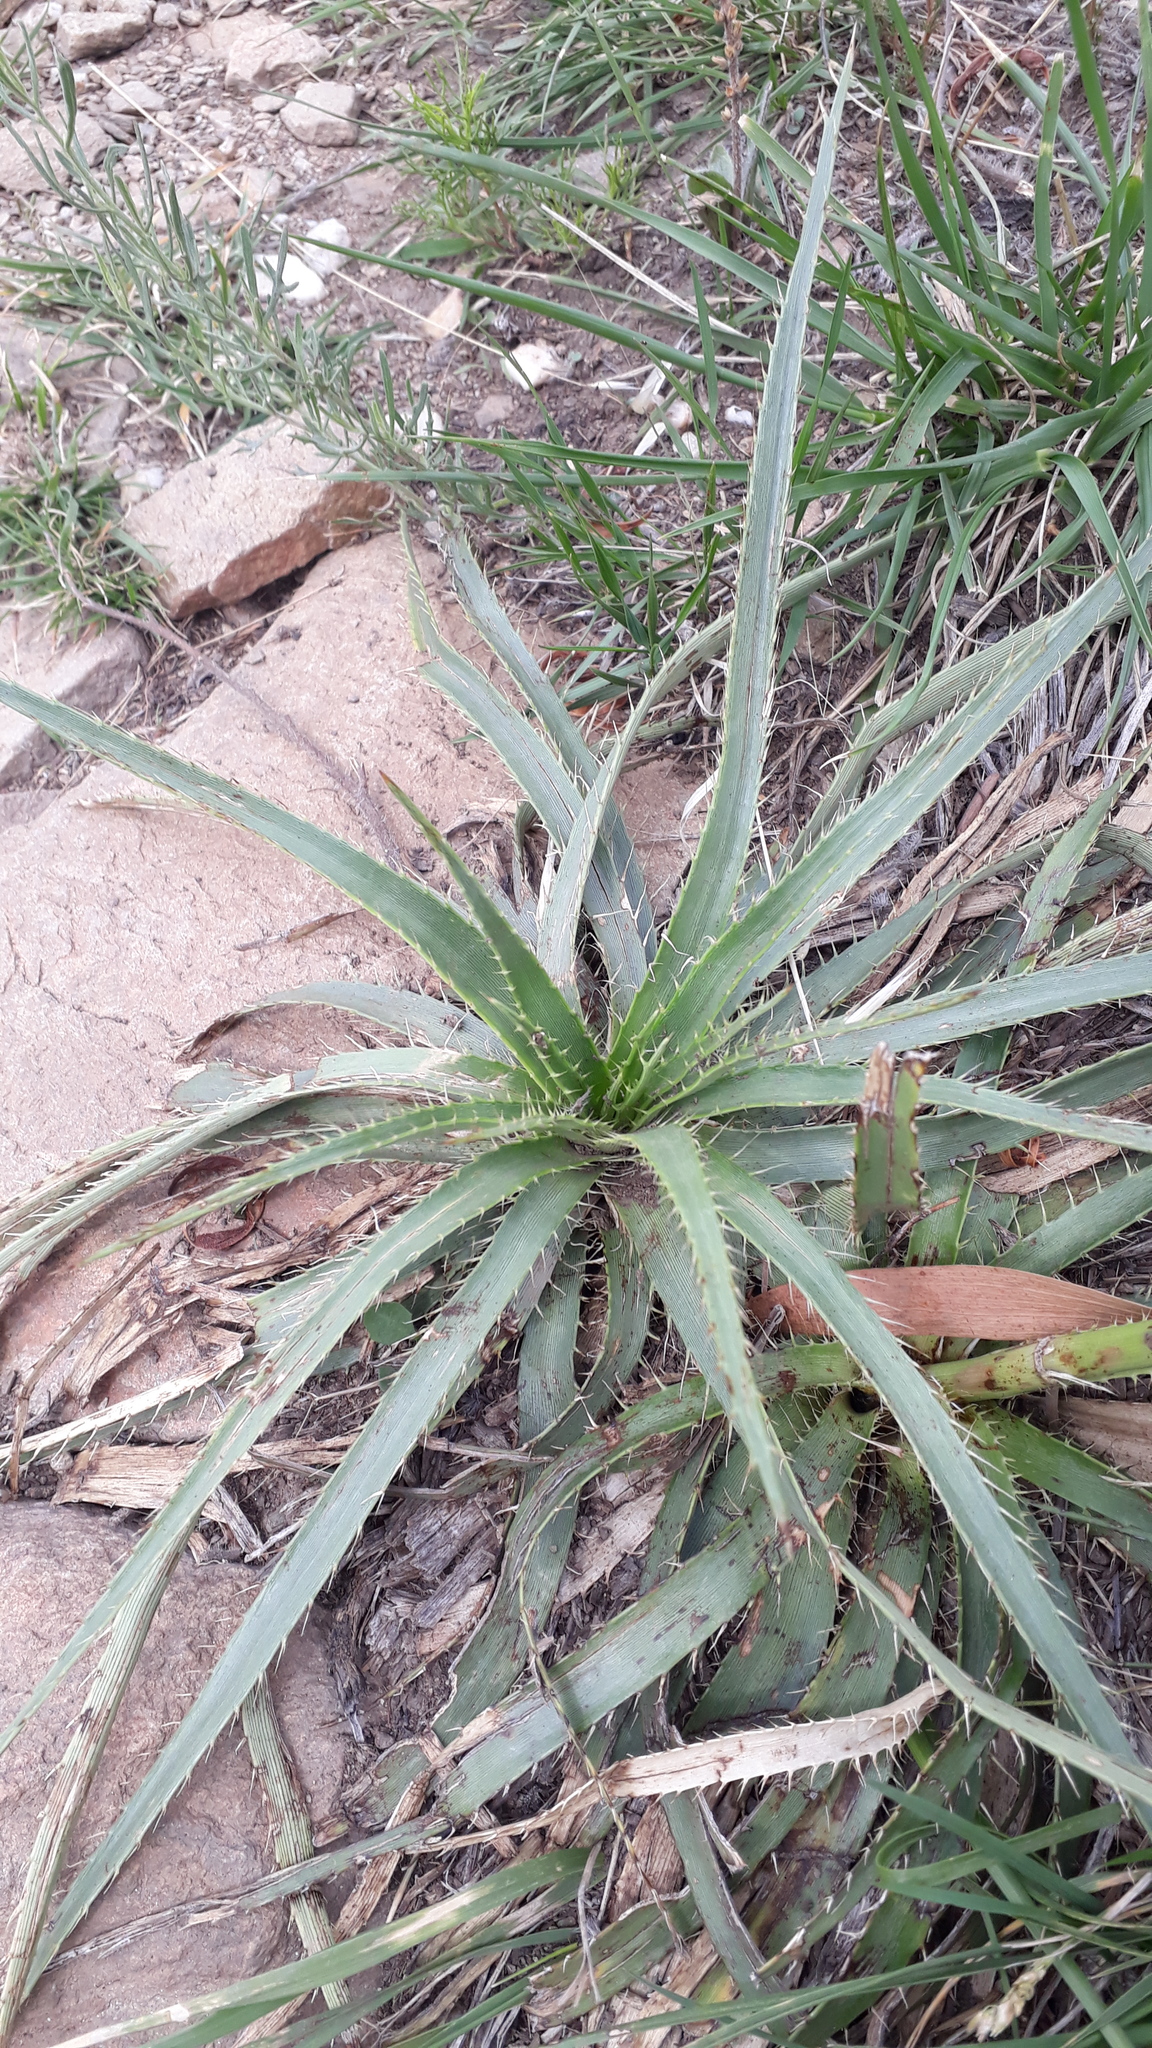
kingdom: Plantae
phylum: Tracheophyta
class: Magnoliopsida
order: Apiales
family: Apiaceae
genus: Eryngium
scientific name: Eryngium humboldtii
